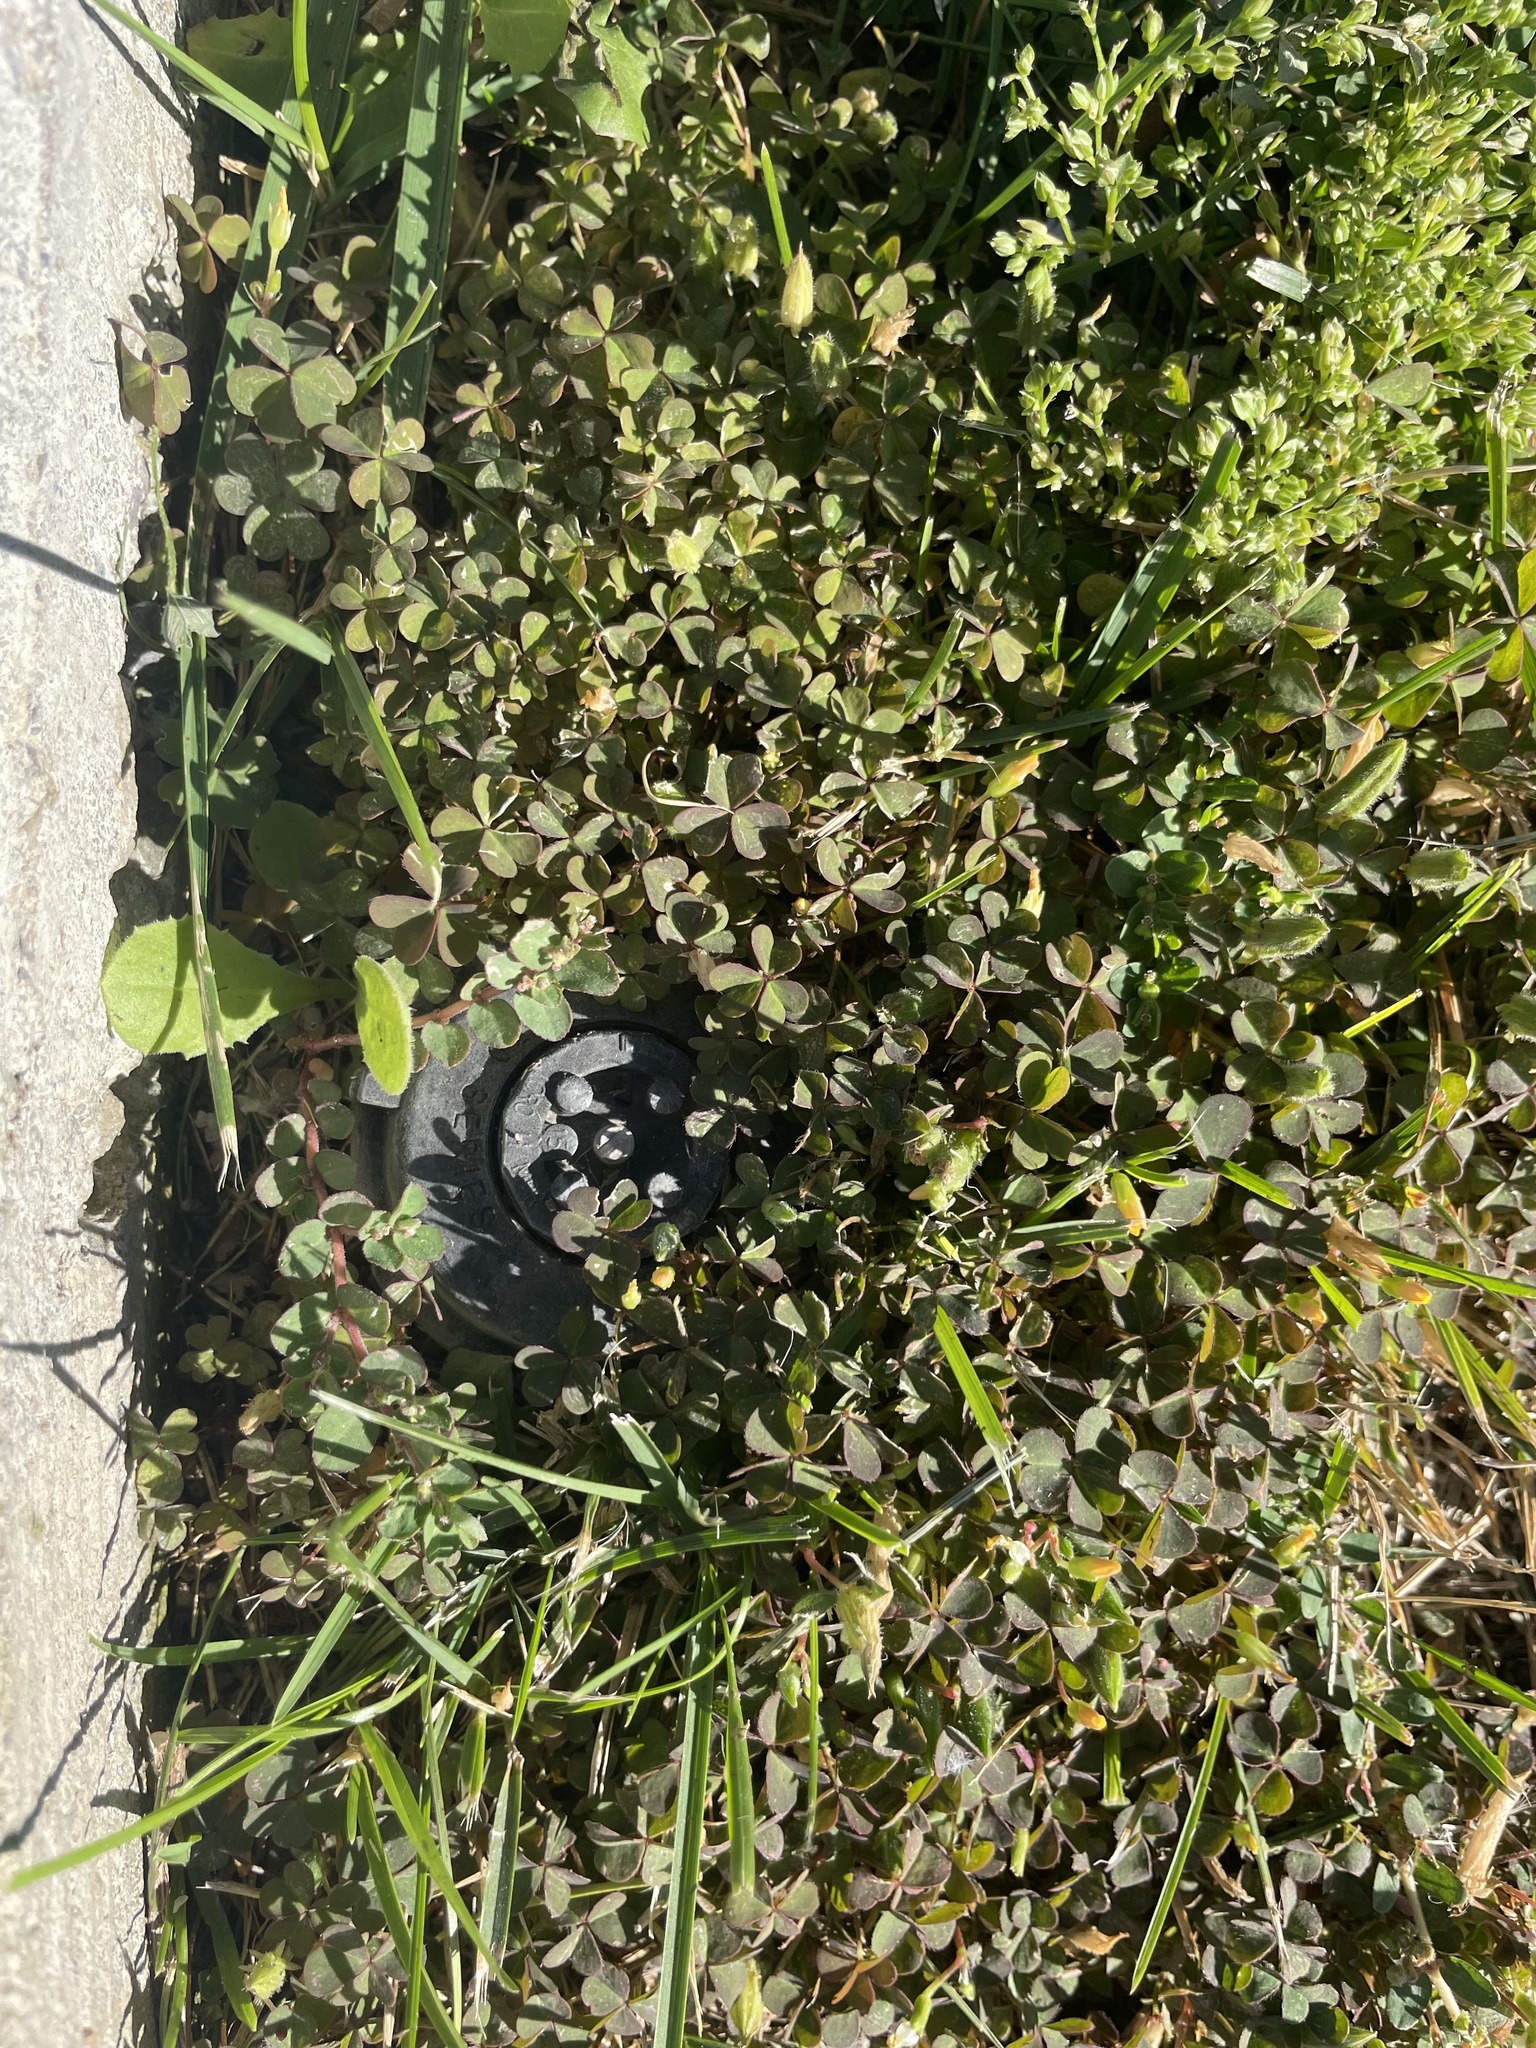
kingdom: Plantae
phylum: Tracheophyta
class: Magnoliopsida
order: Oxalidales
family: Oxalidaceae
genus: Oxalis
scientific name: Oxalis corniculata
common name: Procumbent yellow-sorrel
